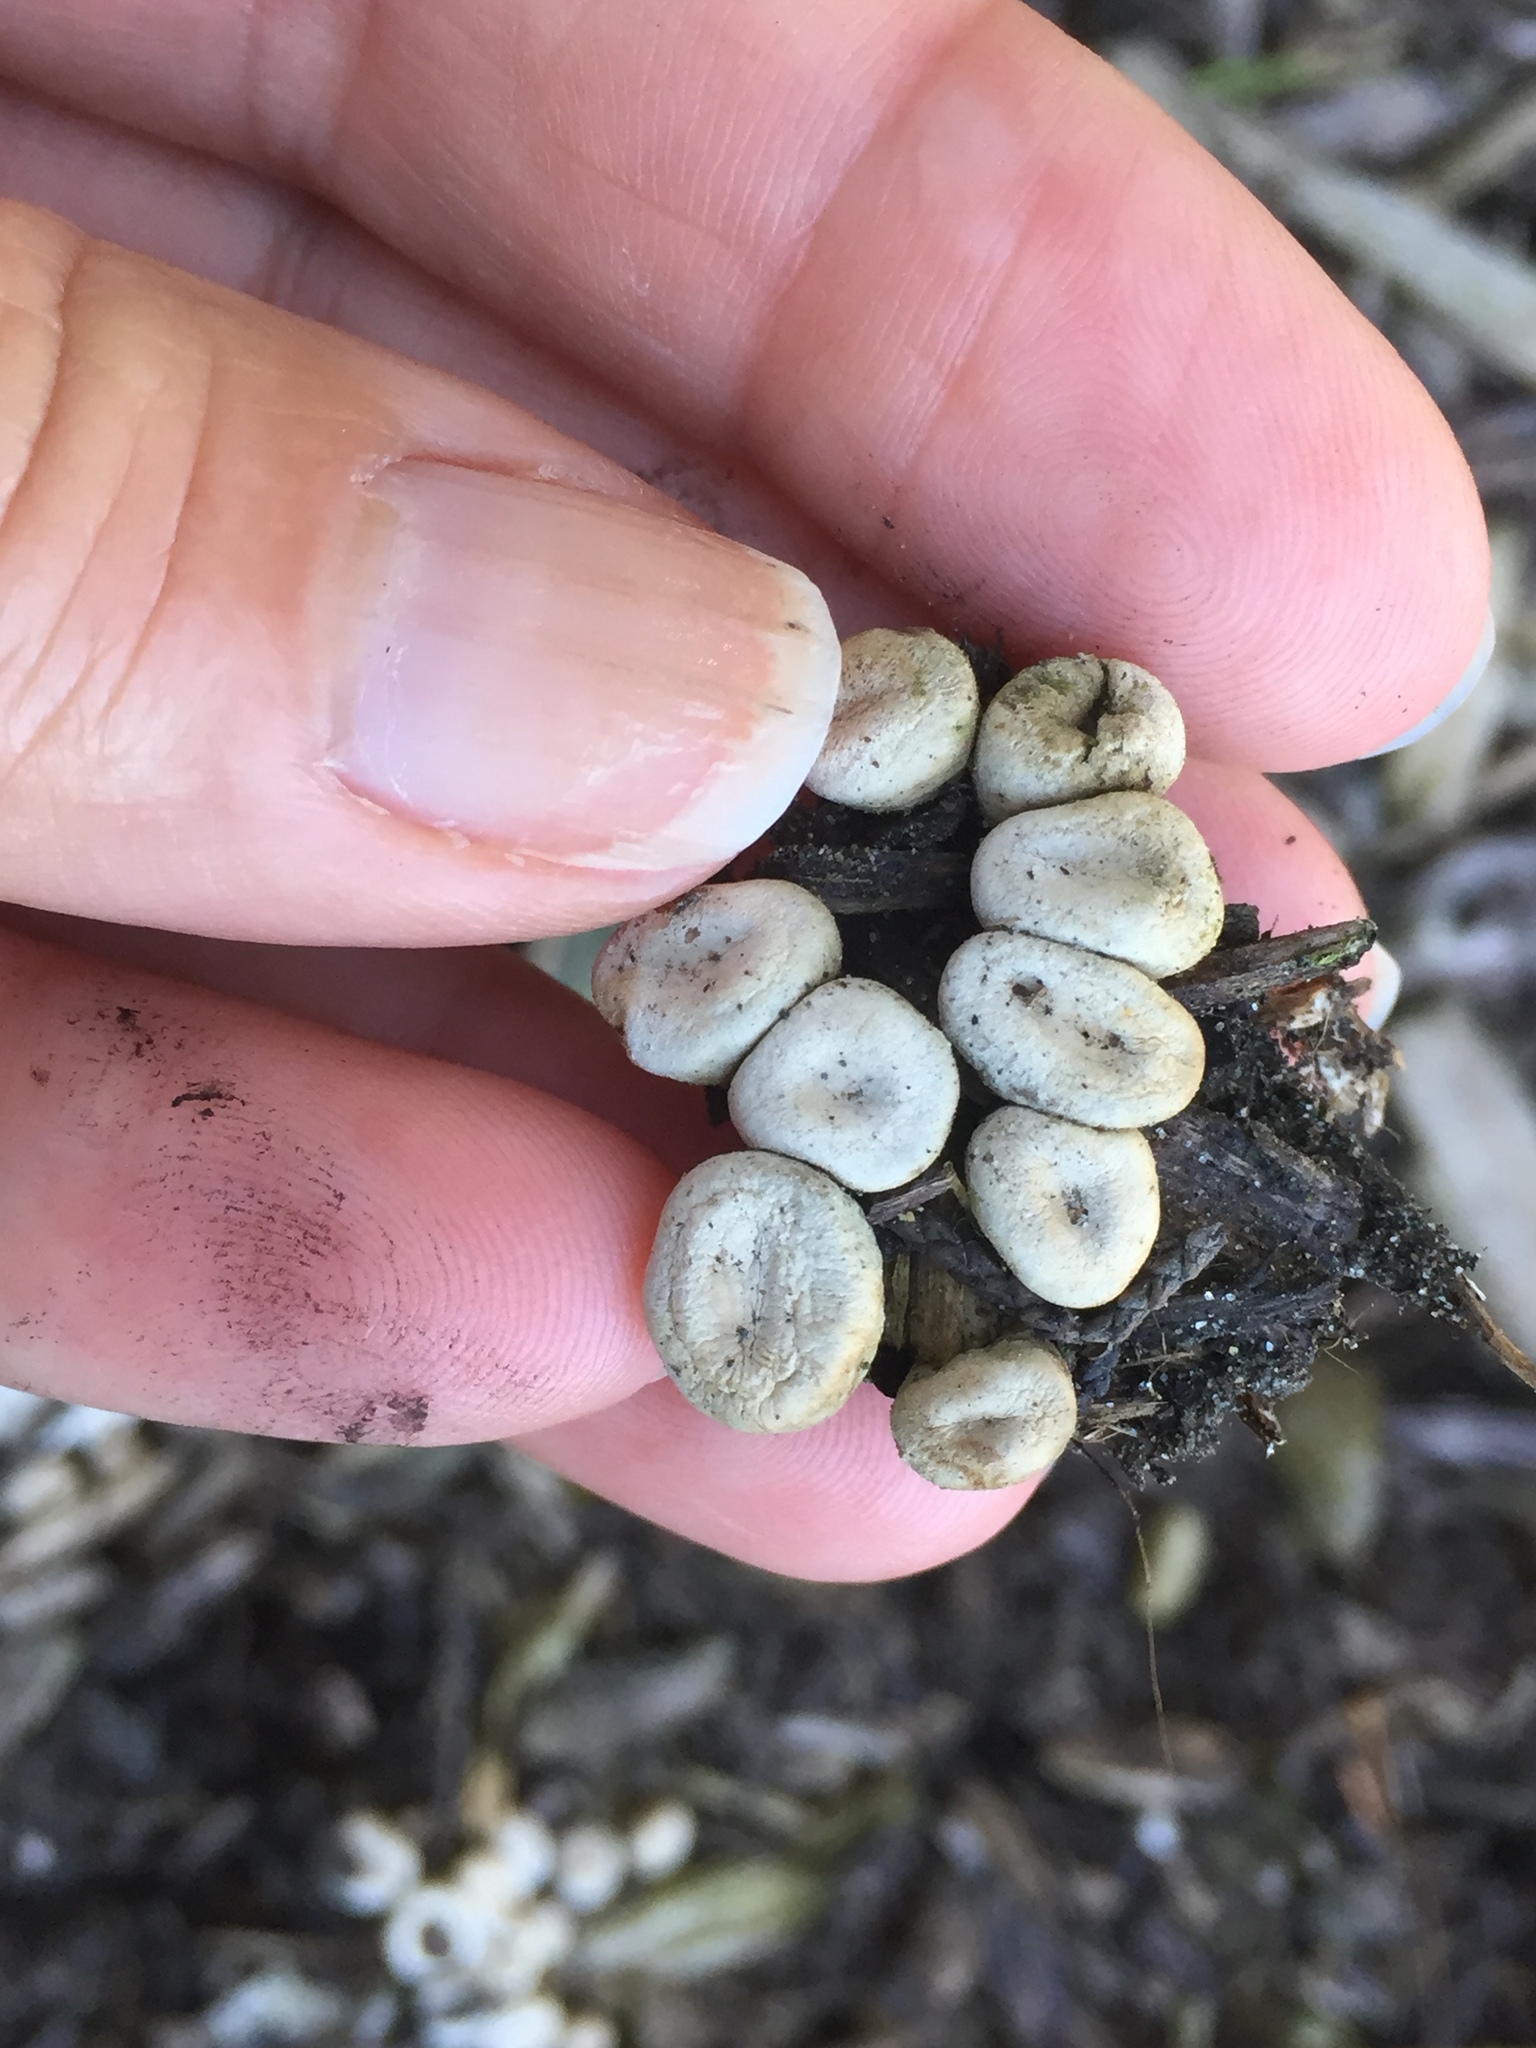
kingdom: Fungi
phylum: Basidiomycota
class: Agaricomycetes
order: Agaricales
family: Agaricaceae
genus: Cyathus
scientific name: Cyathus olla
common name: Field bird's nest
